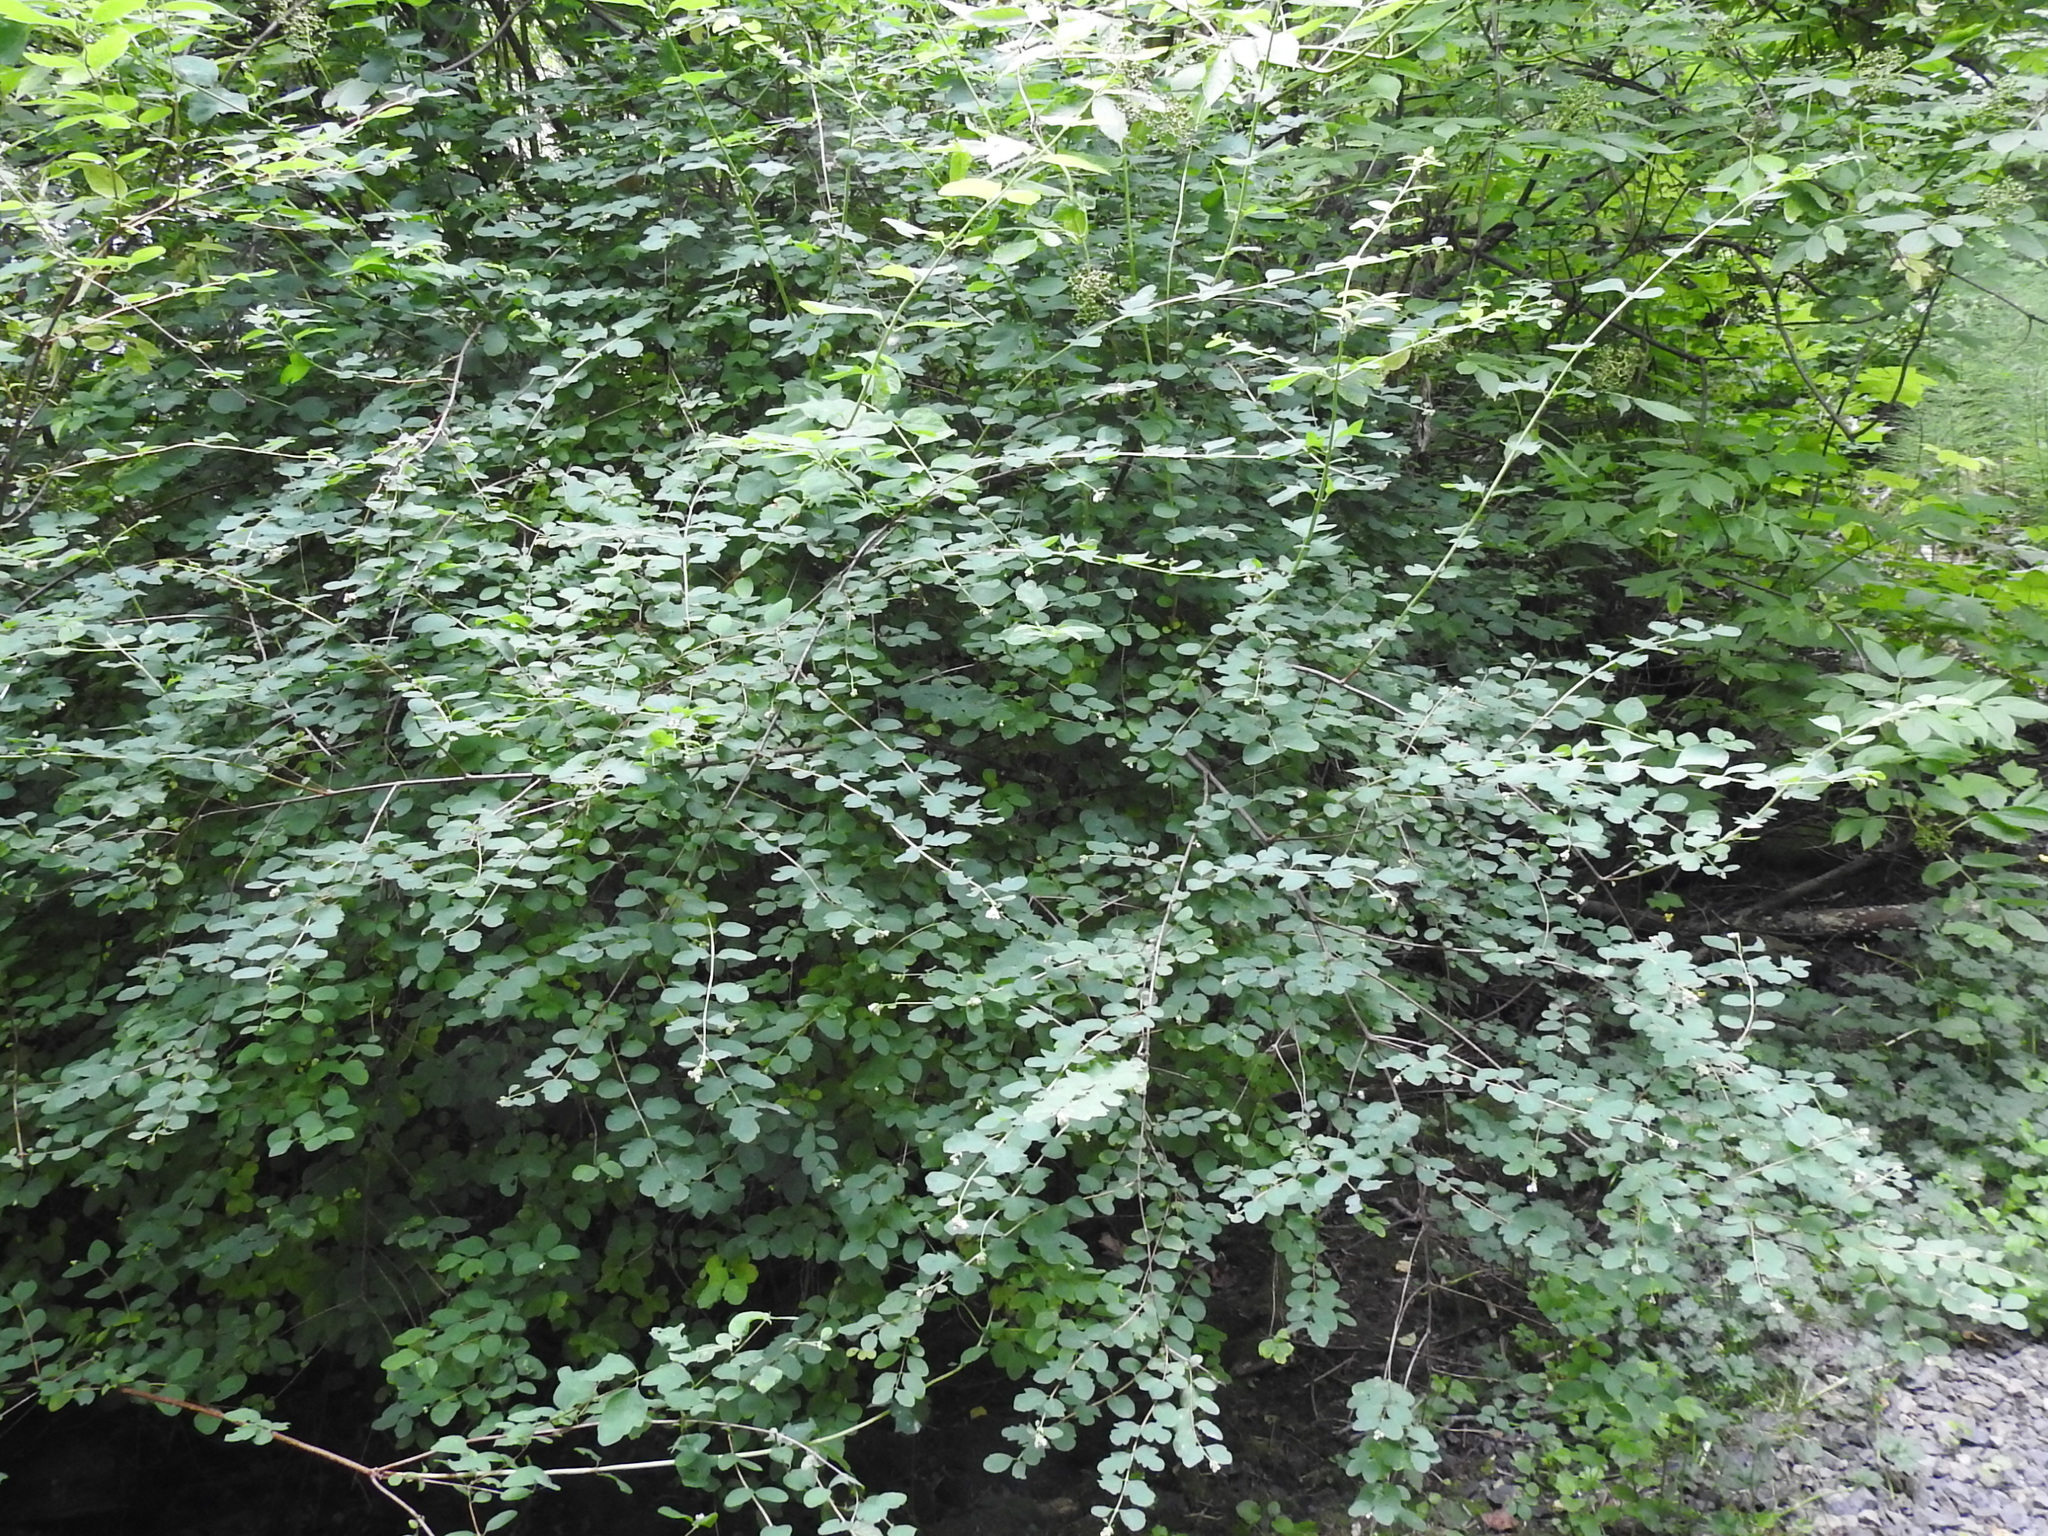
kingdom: Plantae
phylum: Tracheophyta
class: Magnoliopsida
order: Dipsacales
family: Caprifoliaceae
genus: Symphoricarpos
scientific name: Symphoricarpos albus
